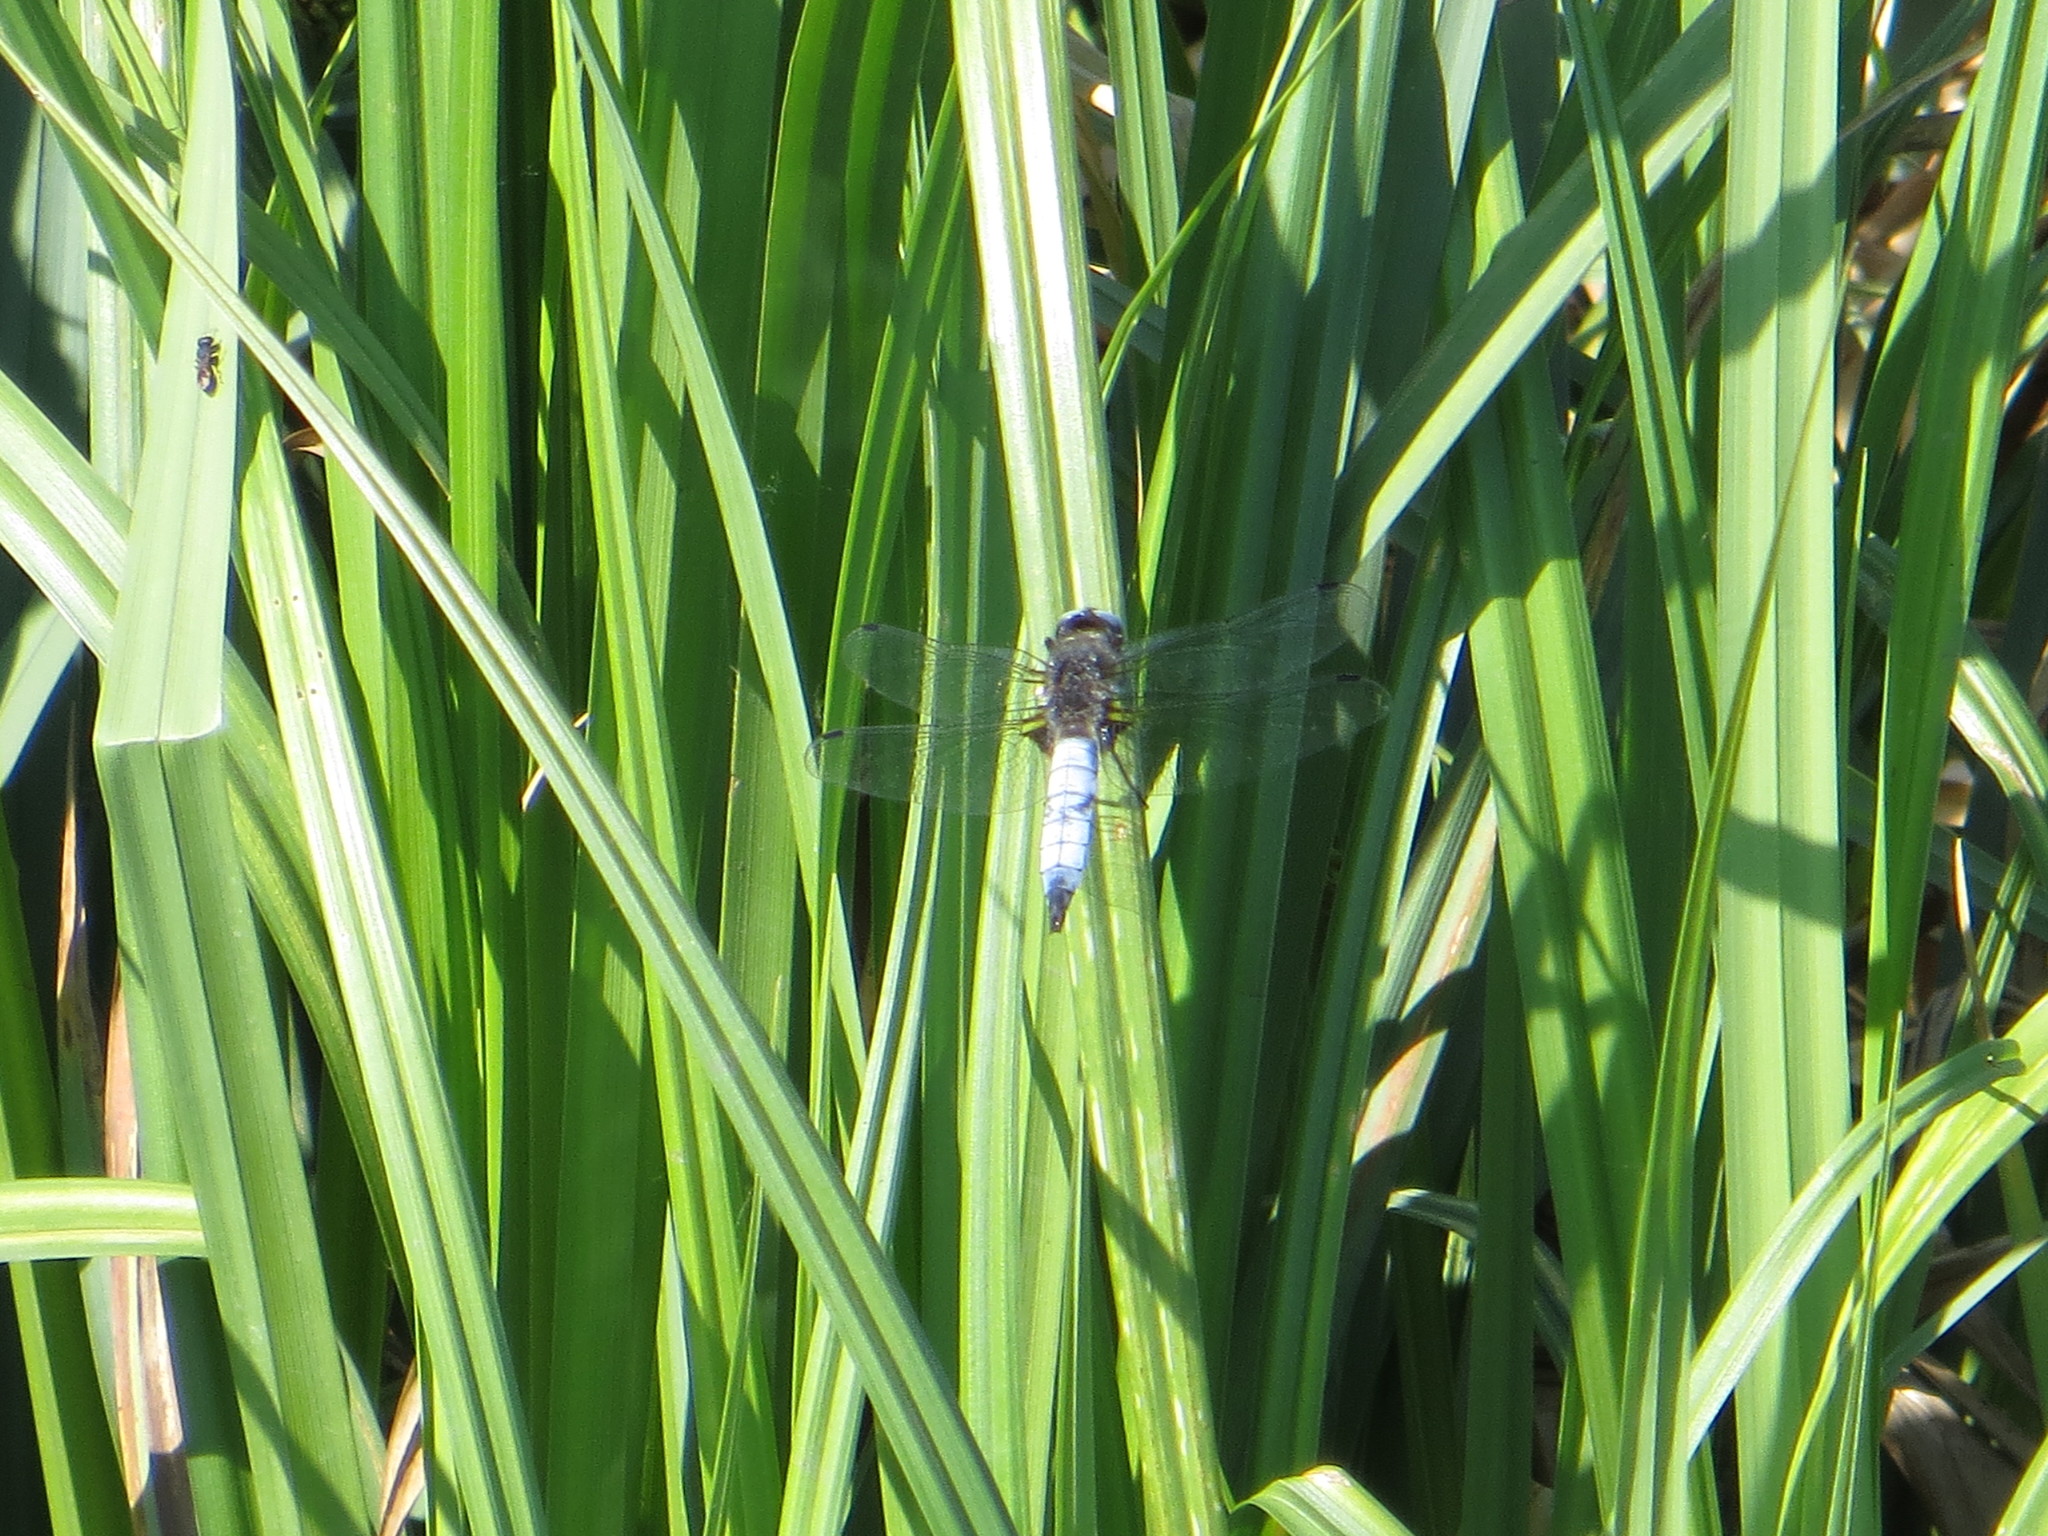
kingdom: Animalia
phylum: Arthropoda
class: Insecta
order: Odonata
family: Libellulidae
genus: Libellula
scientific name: Libellula fulva
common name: Blue chaser
